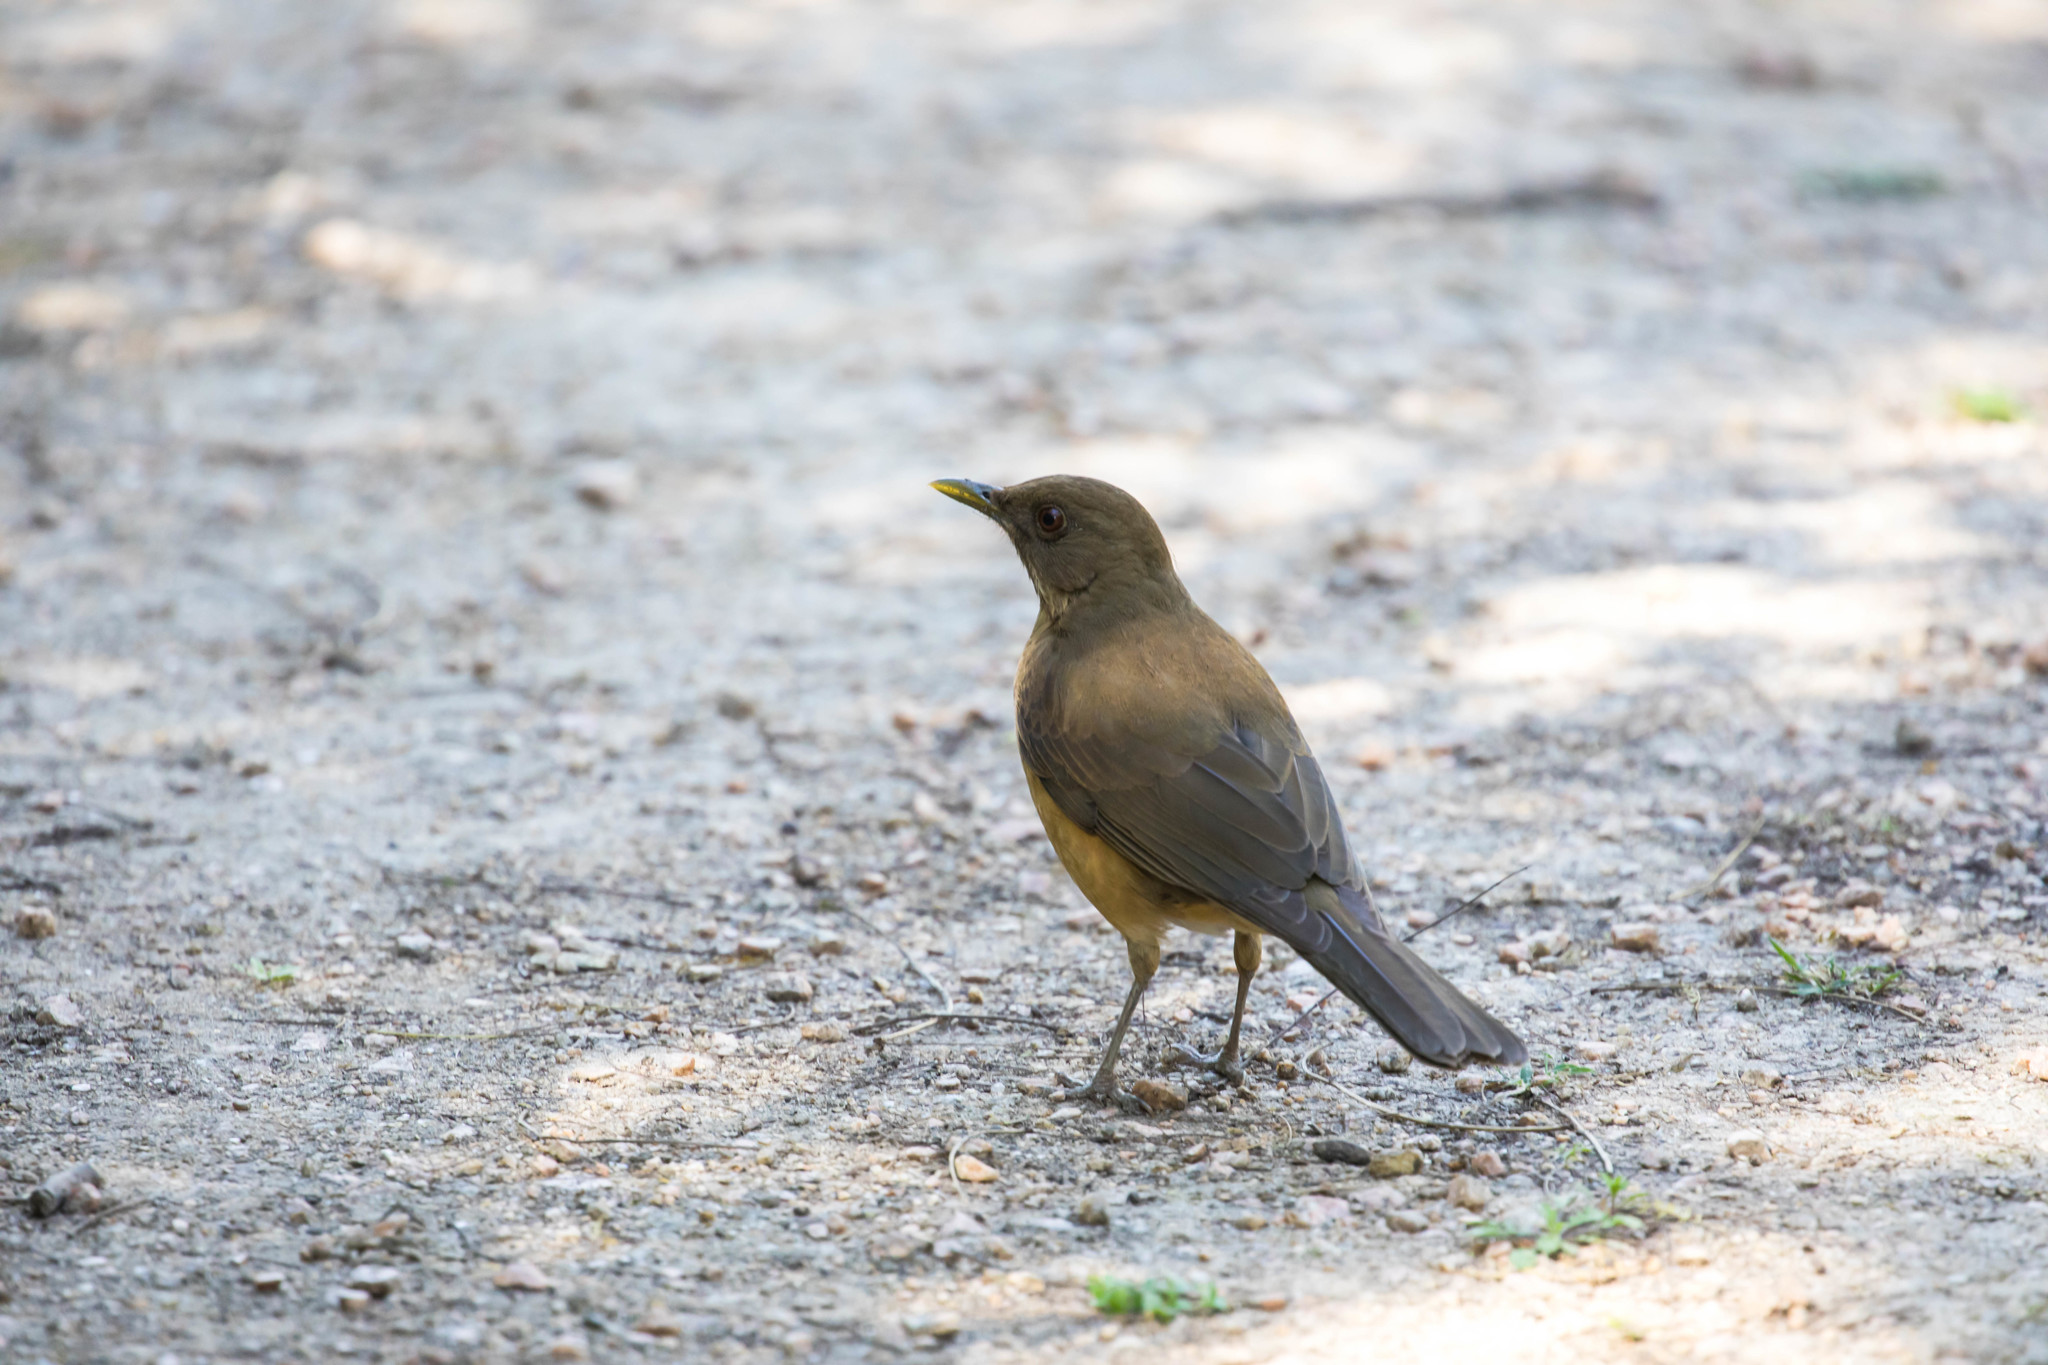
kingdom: Animalia
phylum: Chordata
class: Aves
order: Passeriformes
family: Turdidae
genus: Turdus
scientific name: Turdus grayi
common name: Clay-colored thrush
